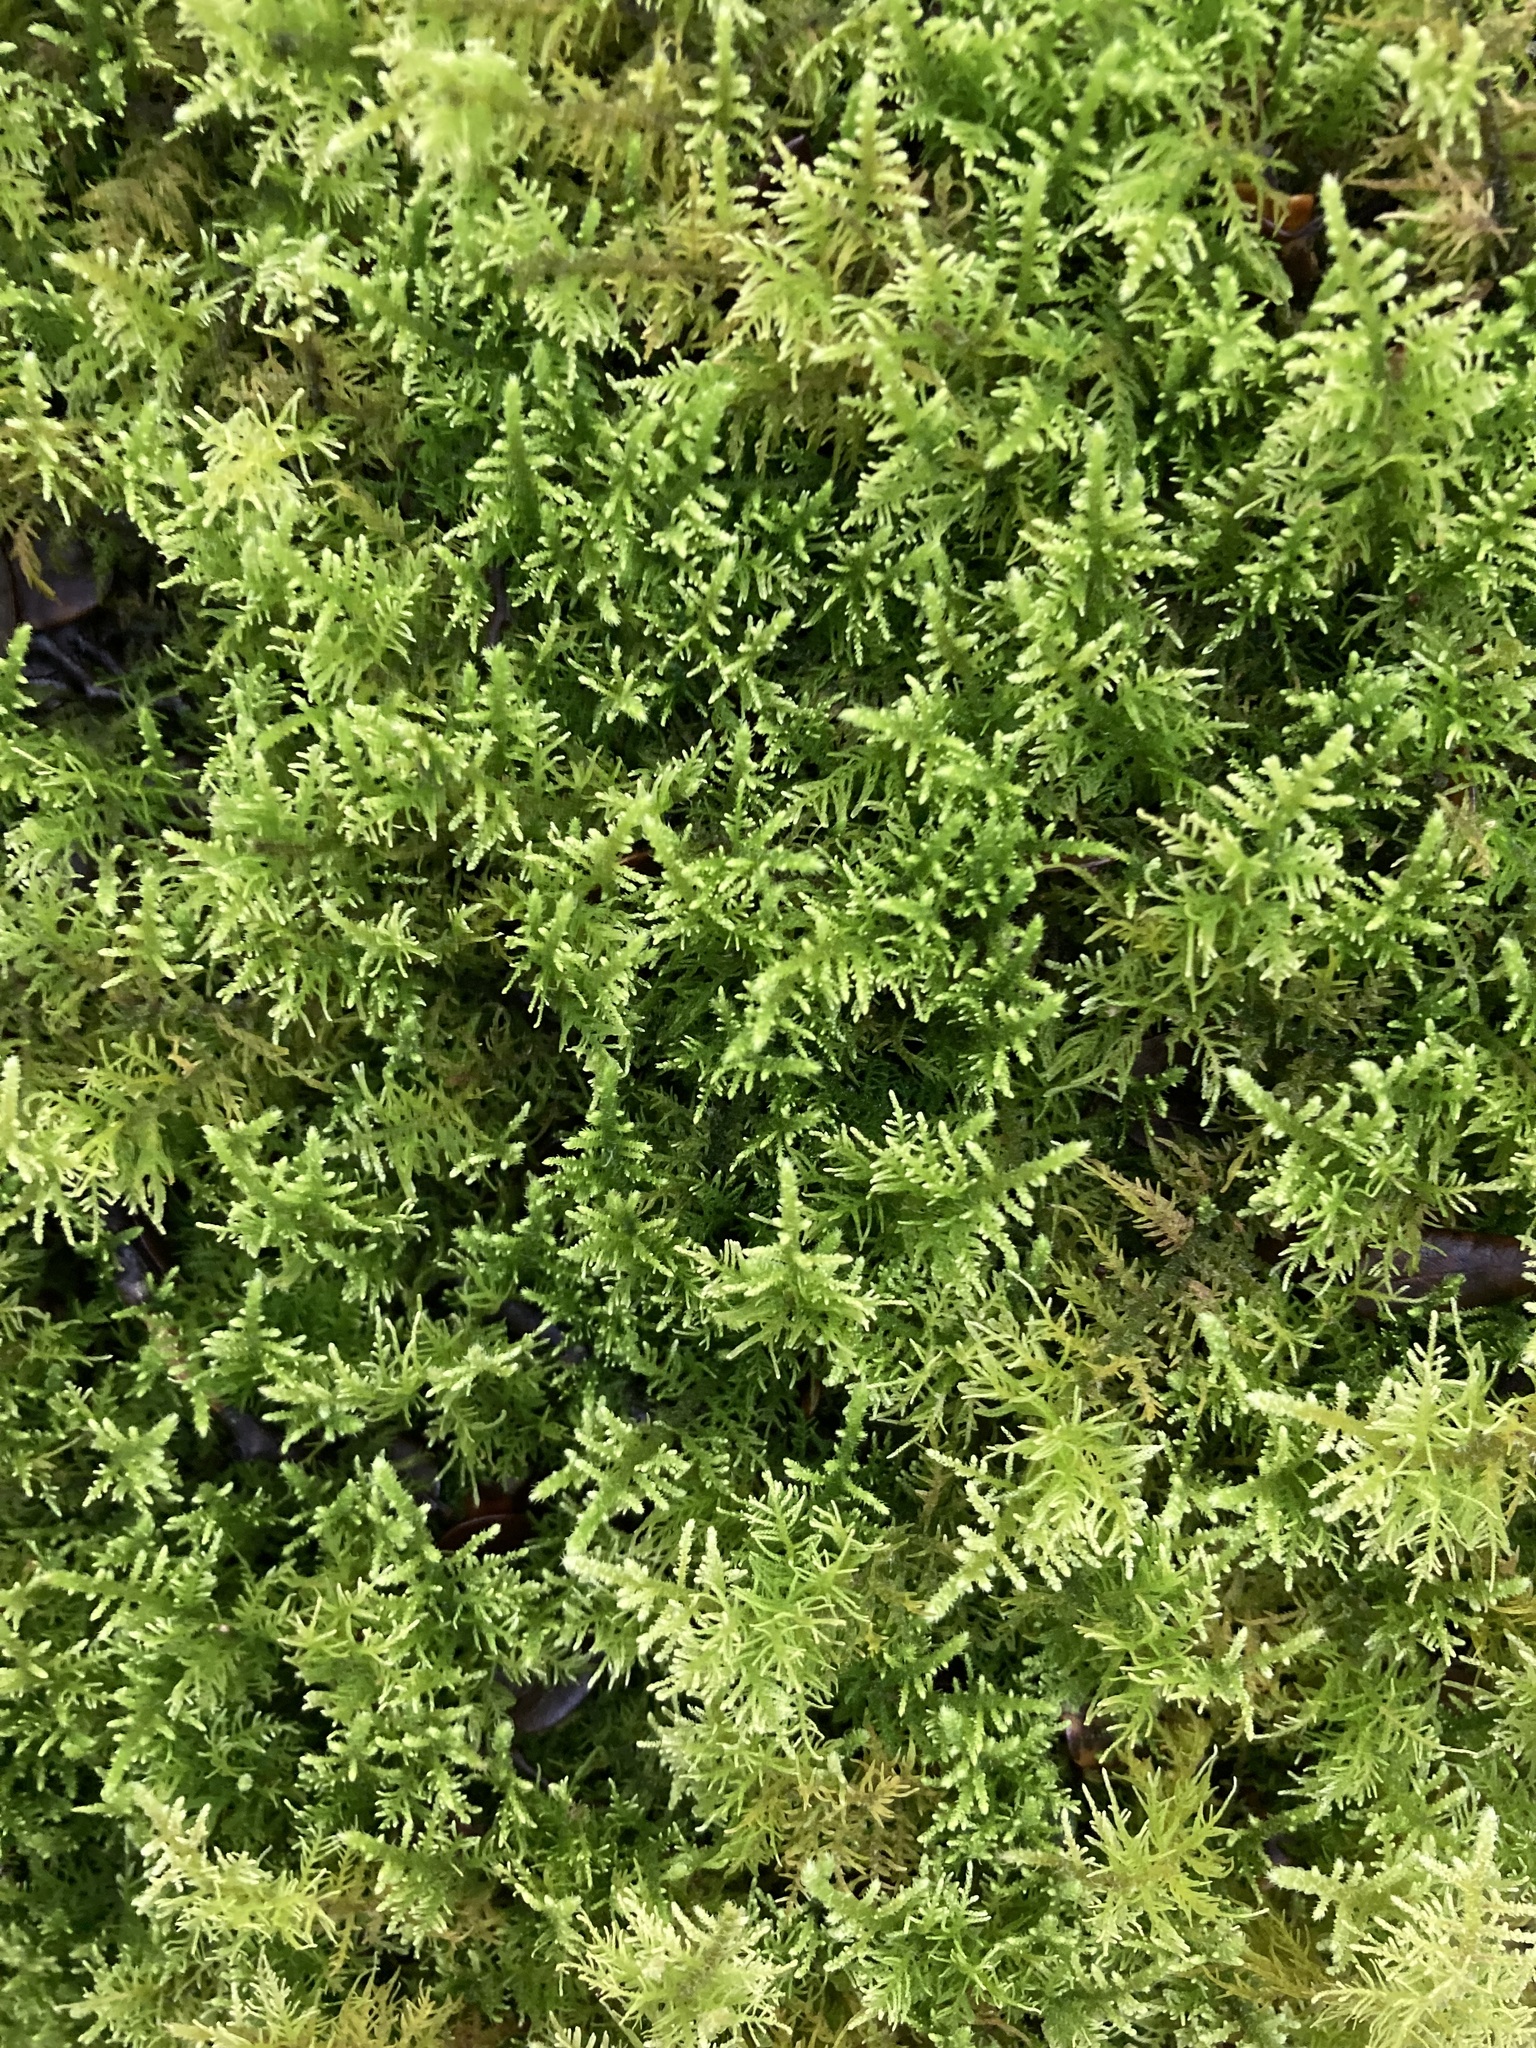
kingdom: Plantae
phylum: Bryophyta
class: Bryopsida
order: Hypnales
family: Thuidiaceae
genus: Thuidiopsis
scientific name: Thuidiopsis furfurosa
